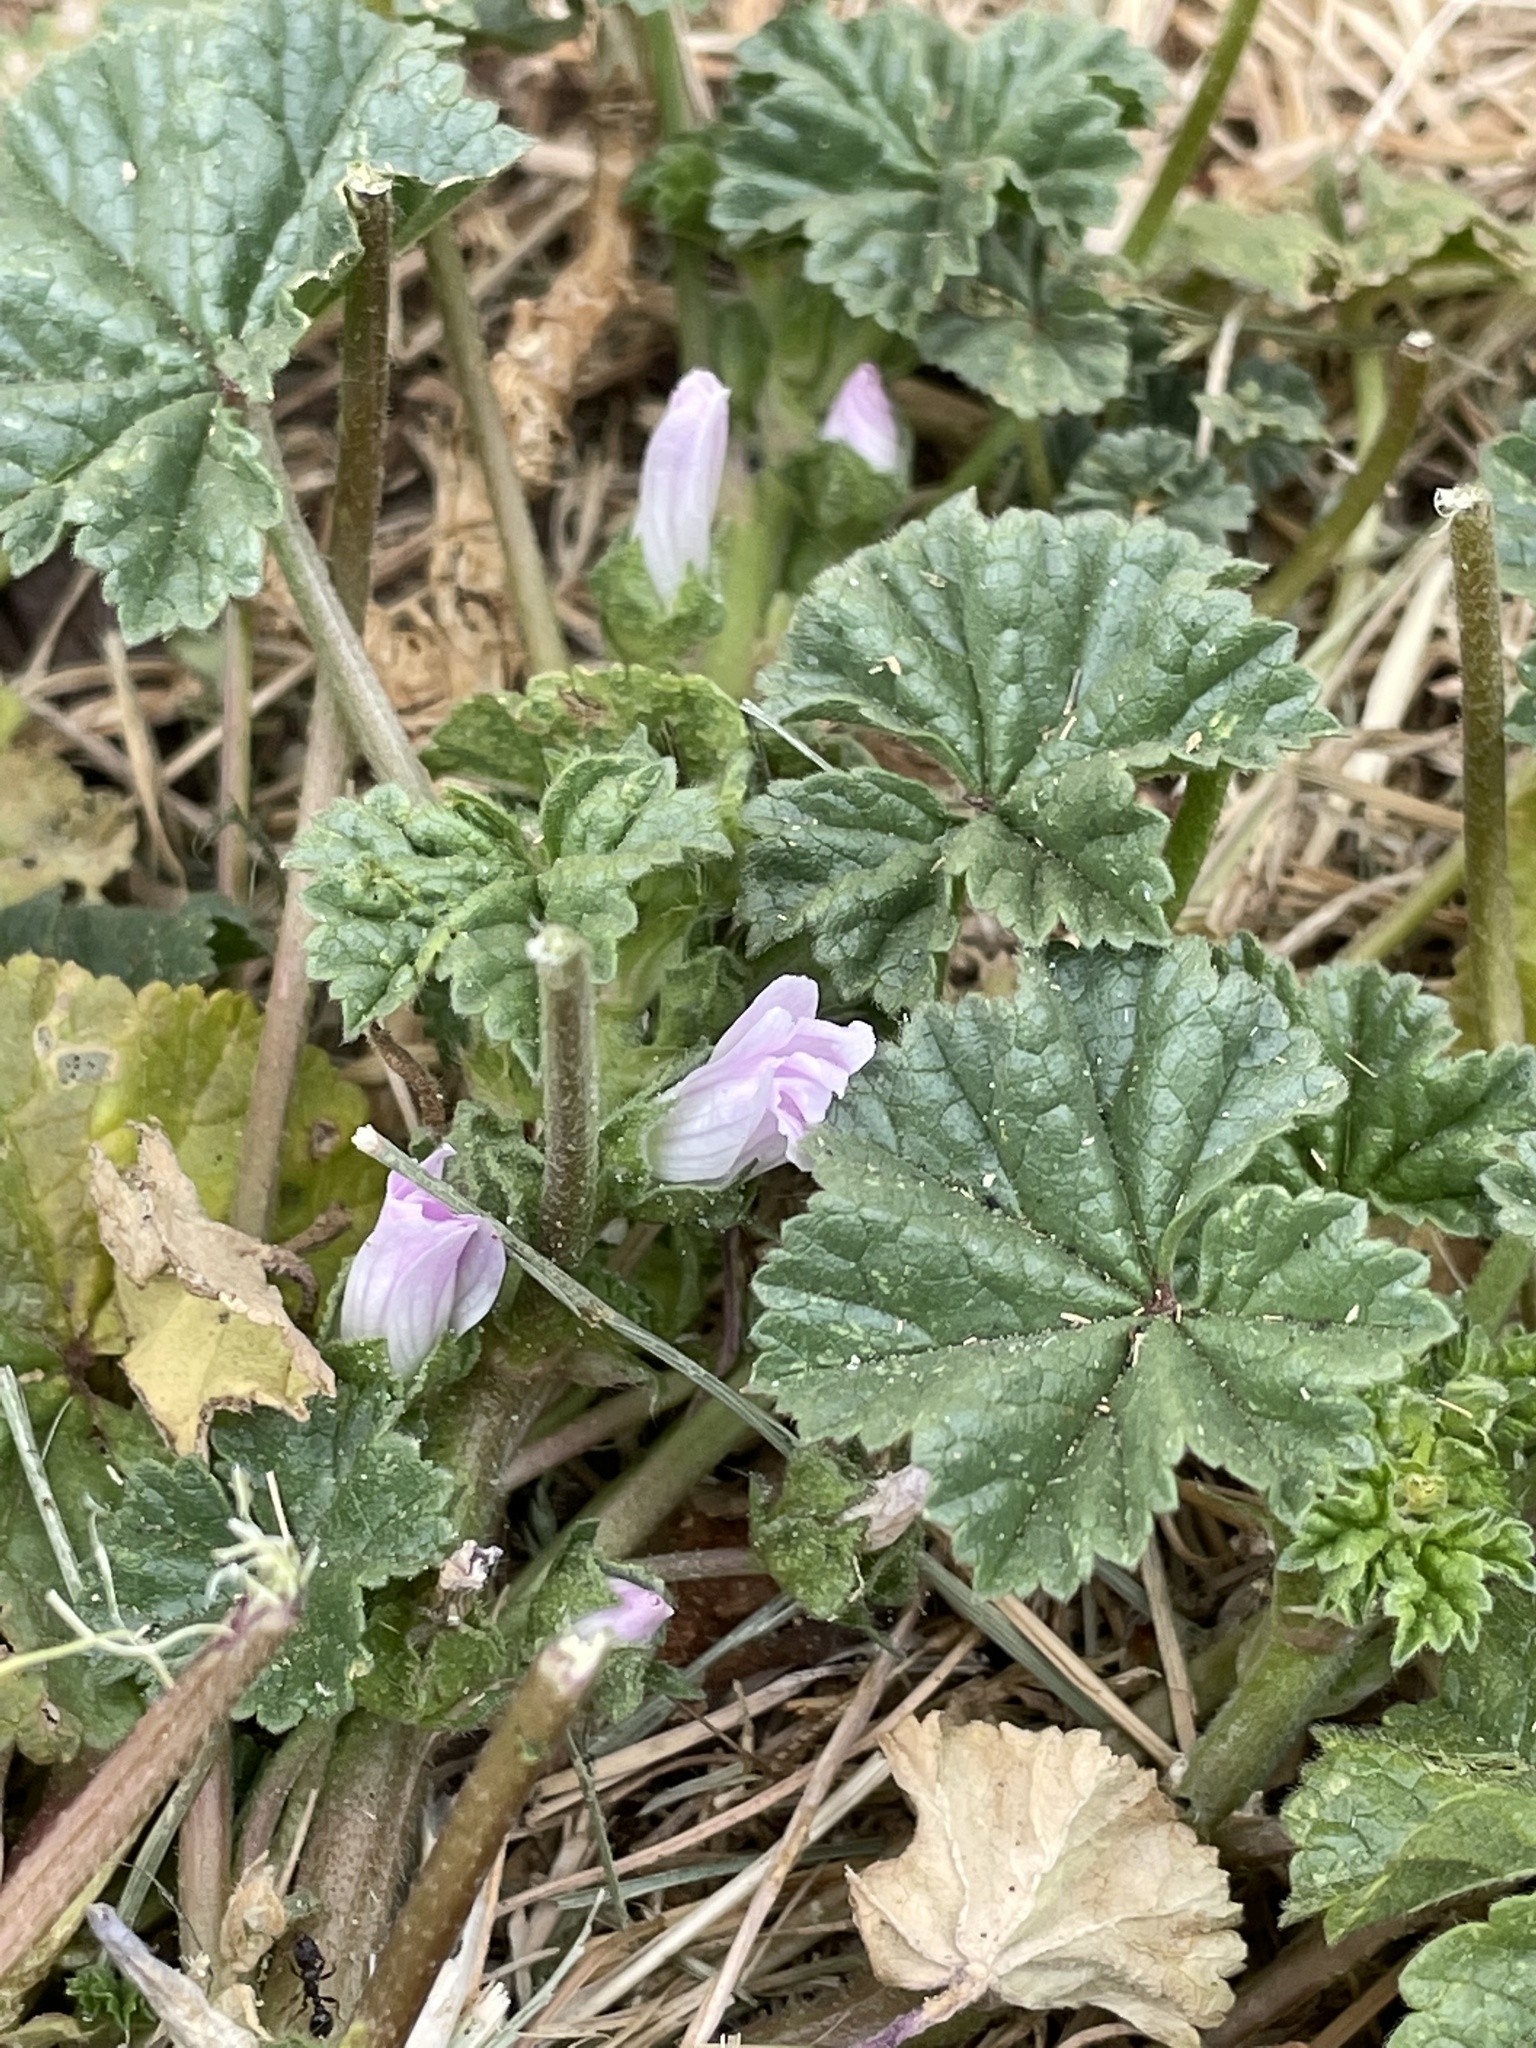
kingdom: Plantae
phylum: Tracheophyta
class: Magnoliopsida
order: Malvales
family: Malvaceae
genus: Malva
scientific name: Malva neglecta
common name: Common mallow
